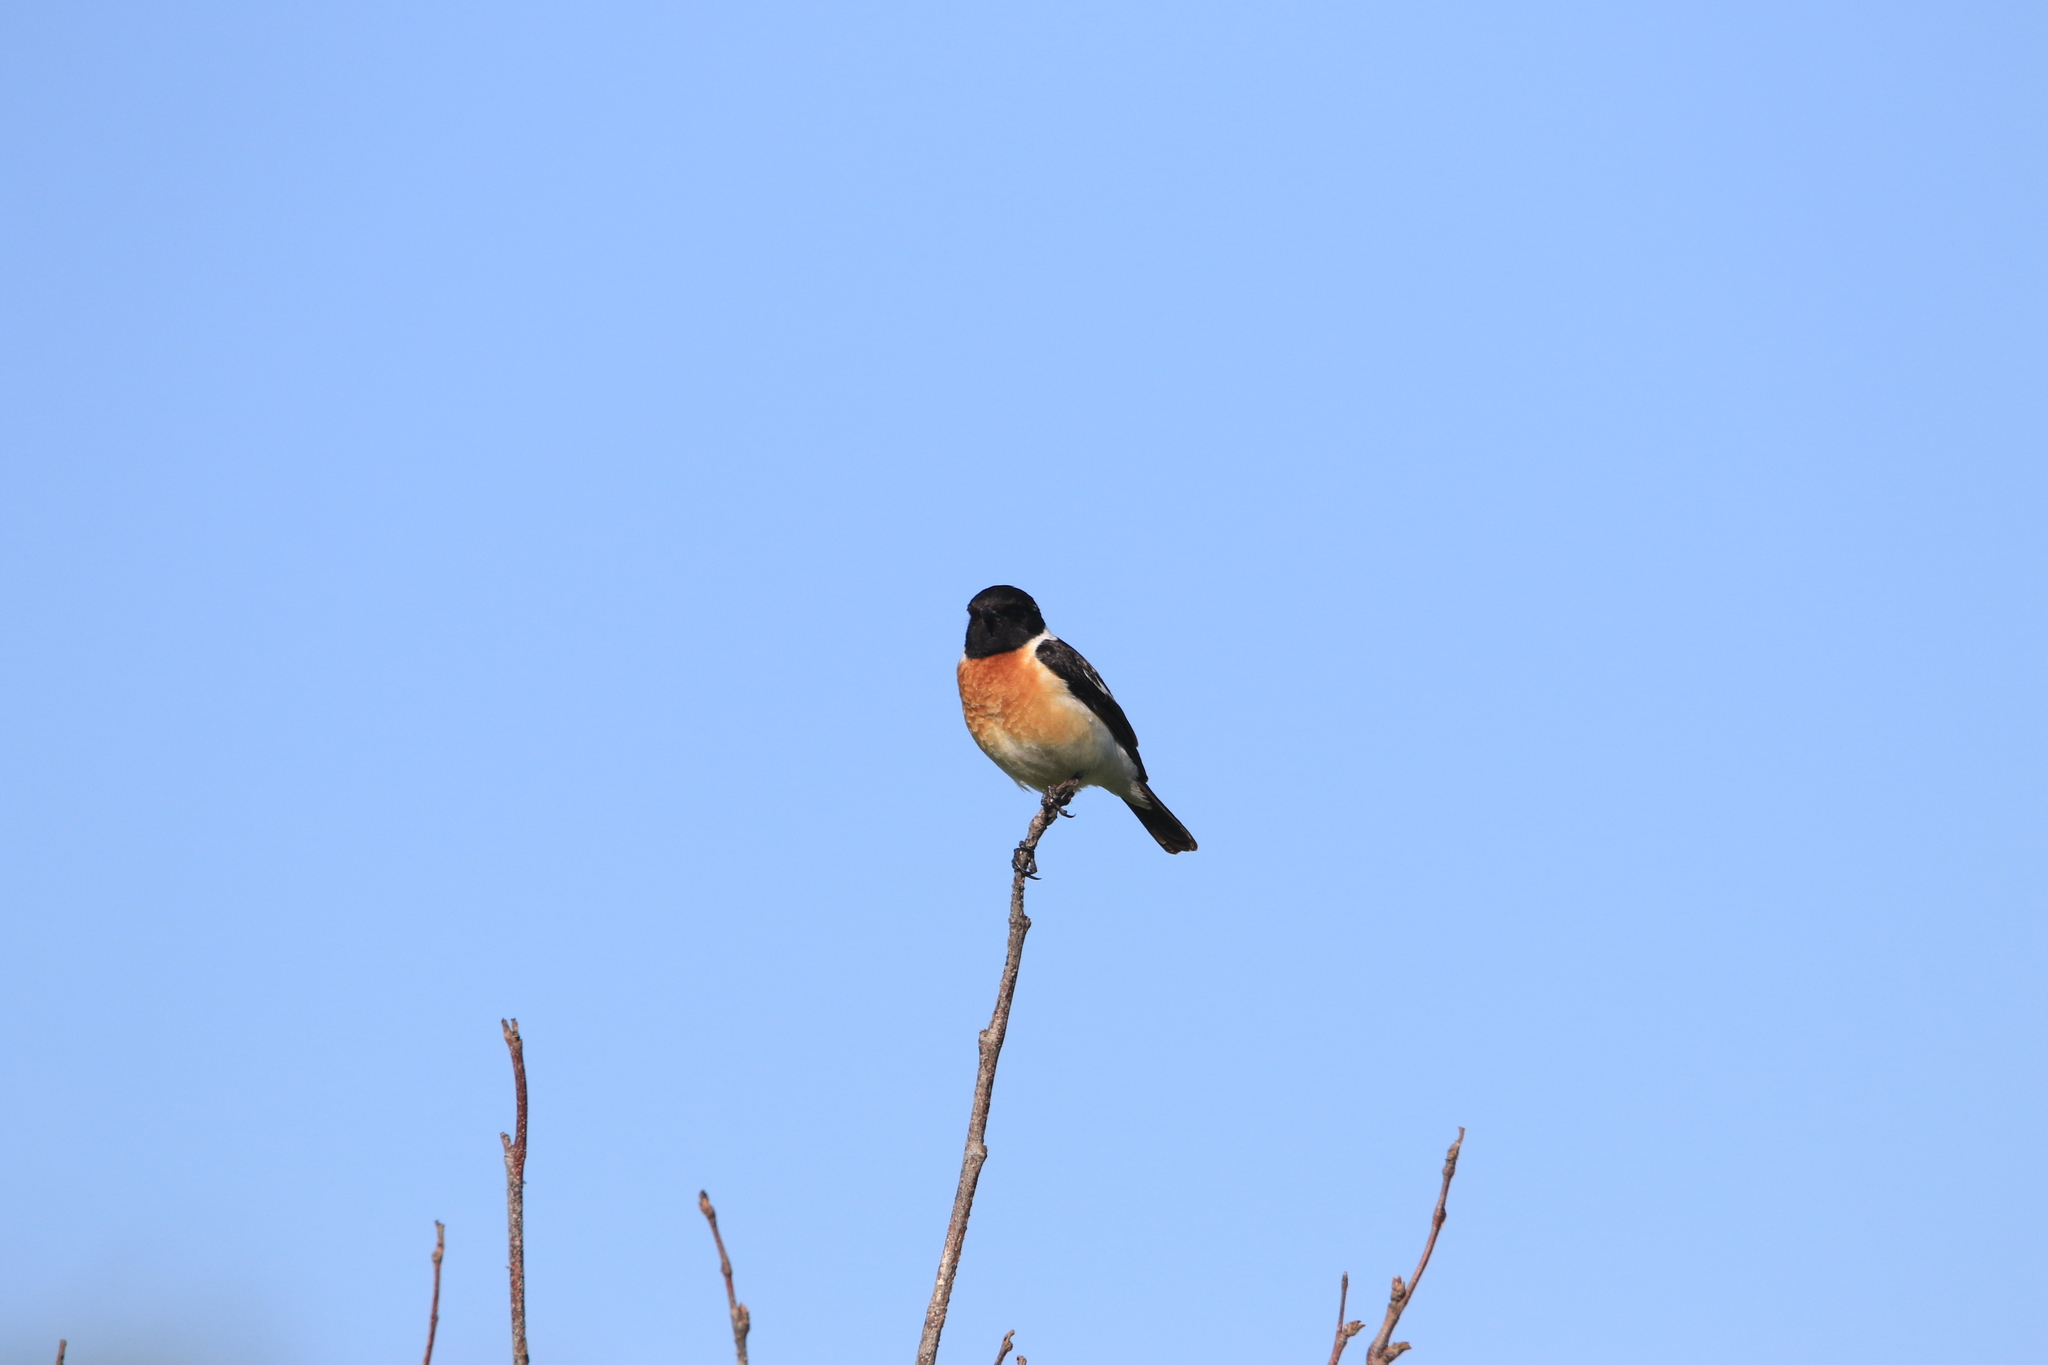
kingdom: Animalia
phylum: Chordata
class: Aves
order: Passeriformes
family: Muscicapidae
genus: Saxicola
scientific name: Saxicola maurus
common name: Siberian stonechat
